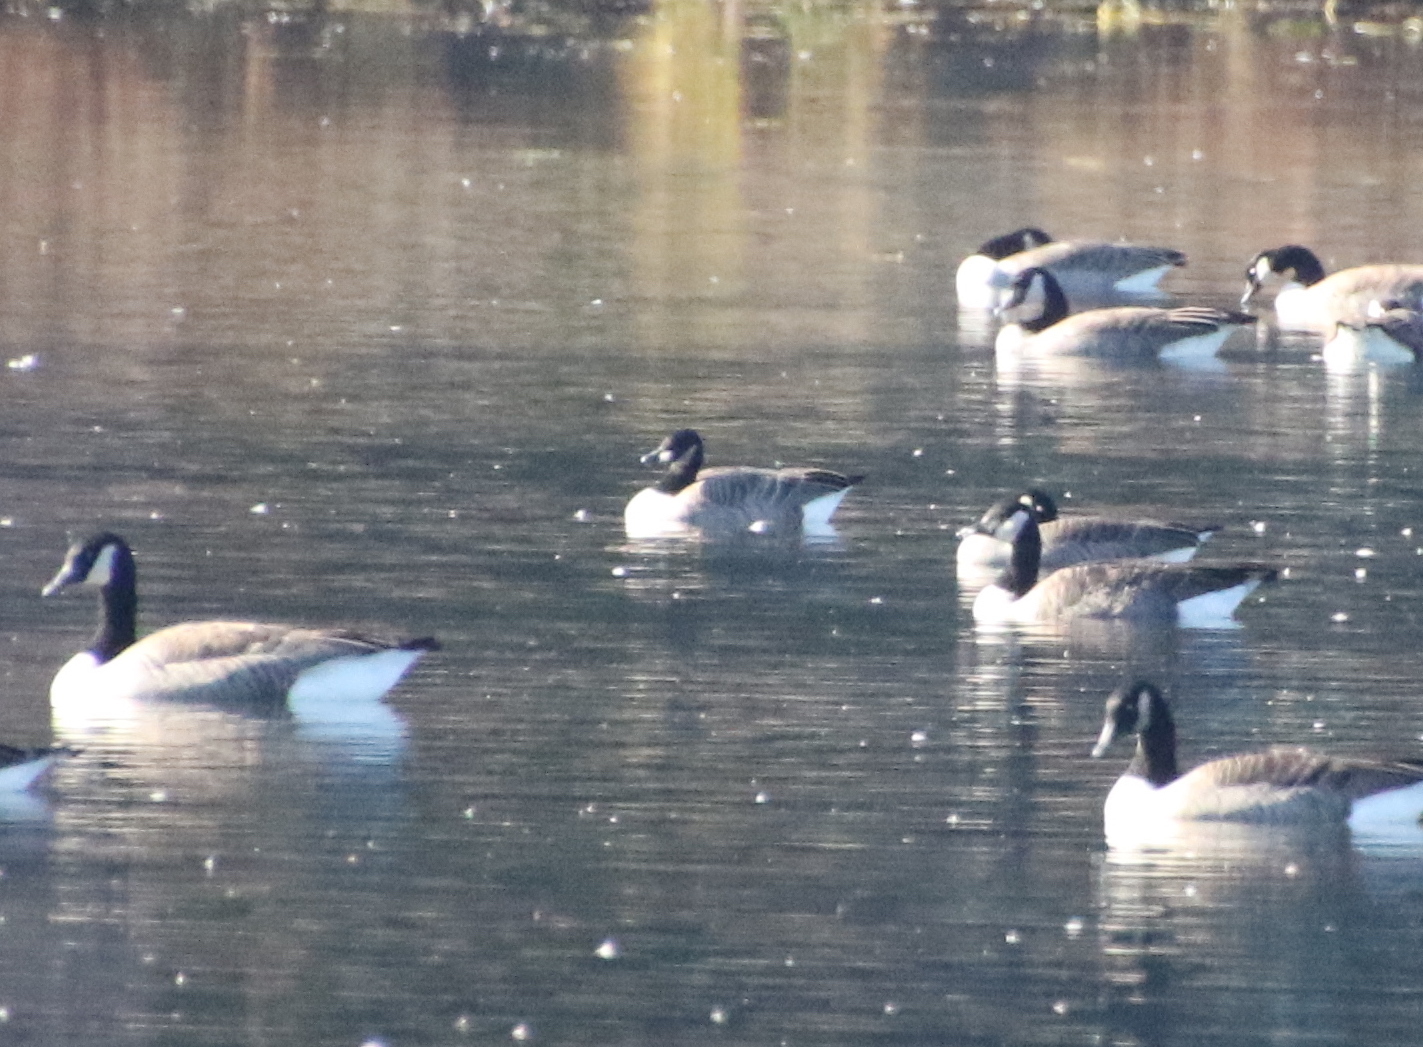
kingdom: Animalia
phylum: Chordata
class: Aves
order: Anseriformes
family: Anatidae
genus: Branta
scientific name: Branta hutchinsii
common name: Cackling goose
